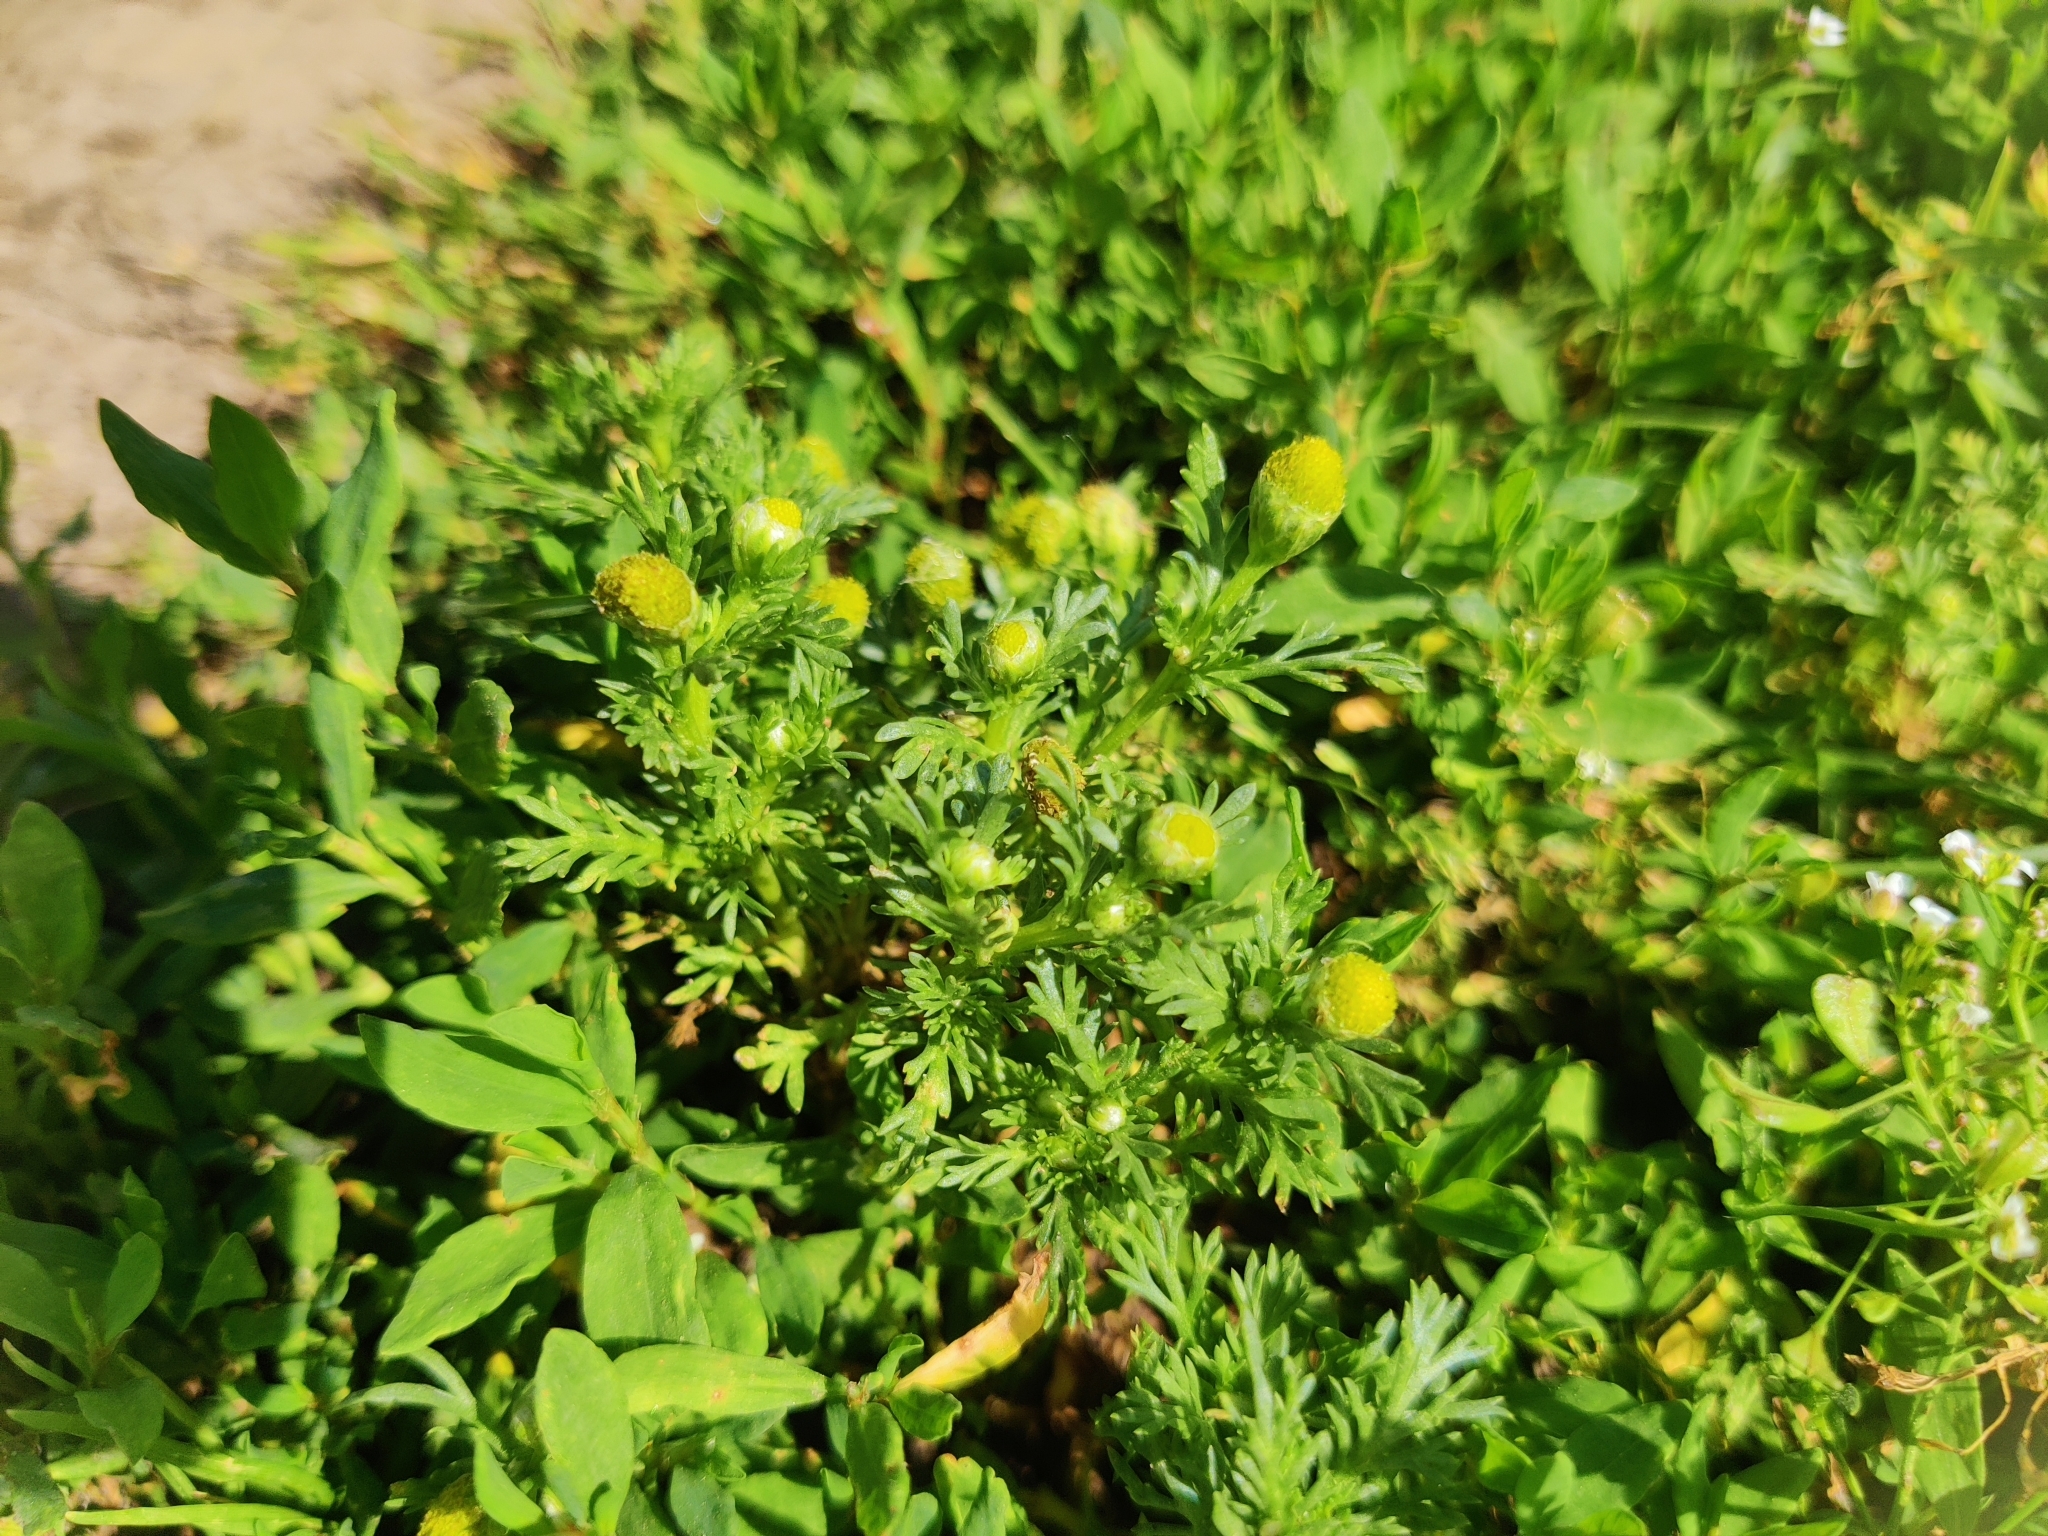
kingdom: Plantae
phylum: Tracheophyta
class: Magnoliopsida
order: Asterales
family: Asteraceae
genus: Matricaria
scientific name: Matricaria discoidea
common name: Disc mayweed
